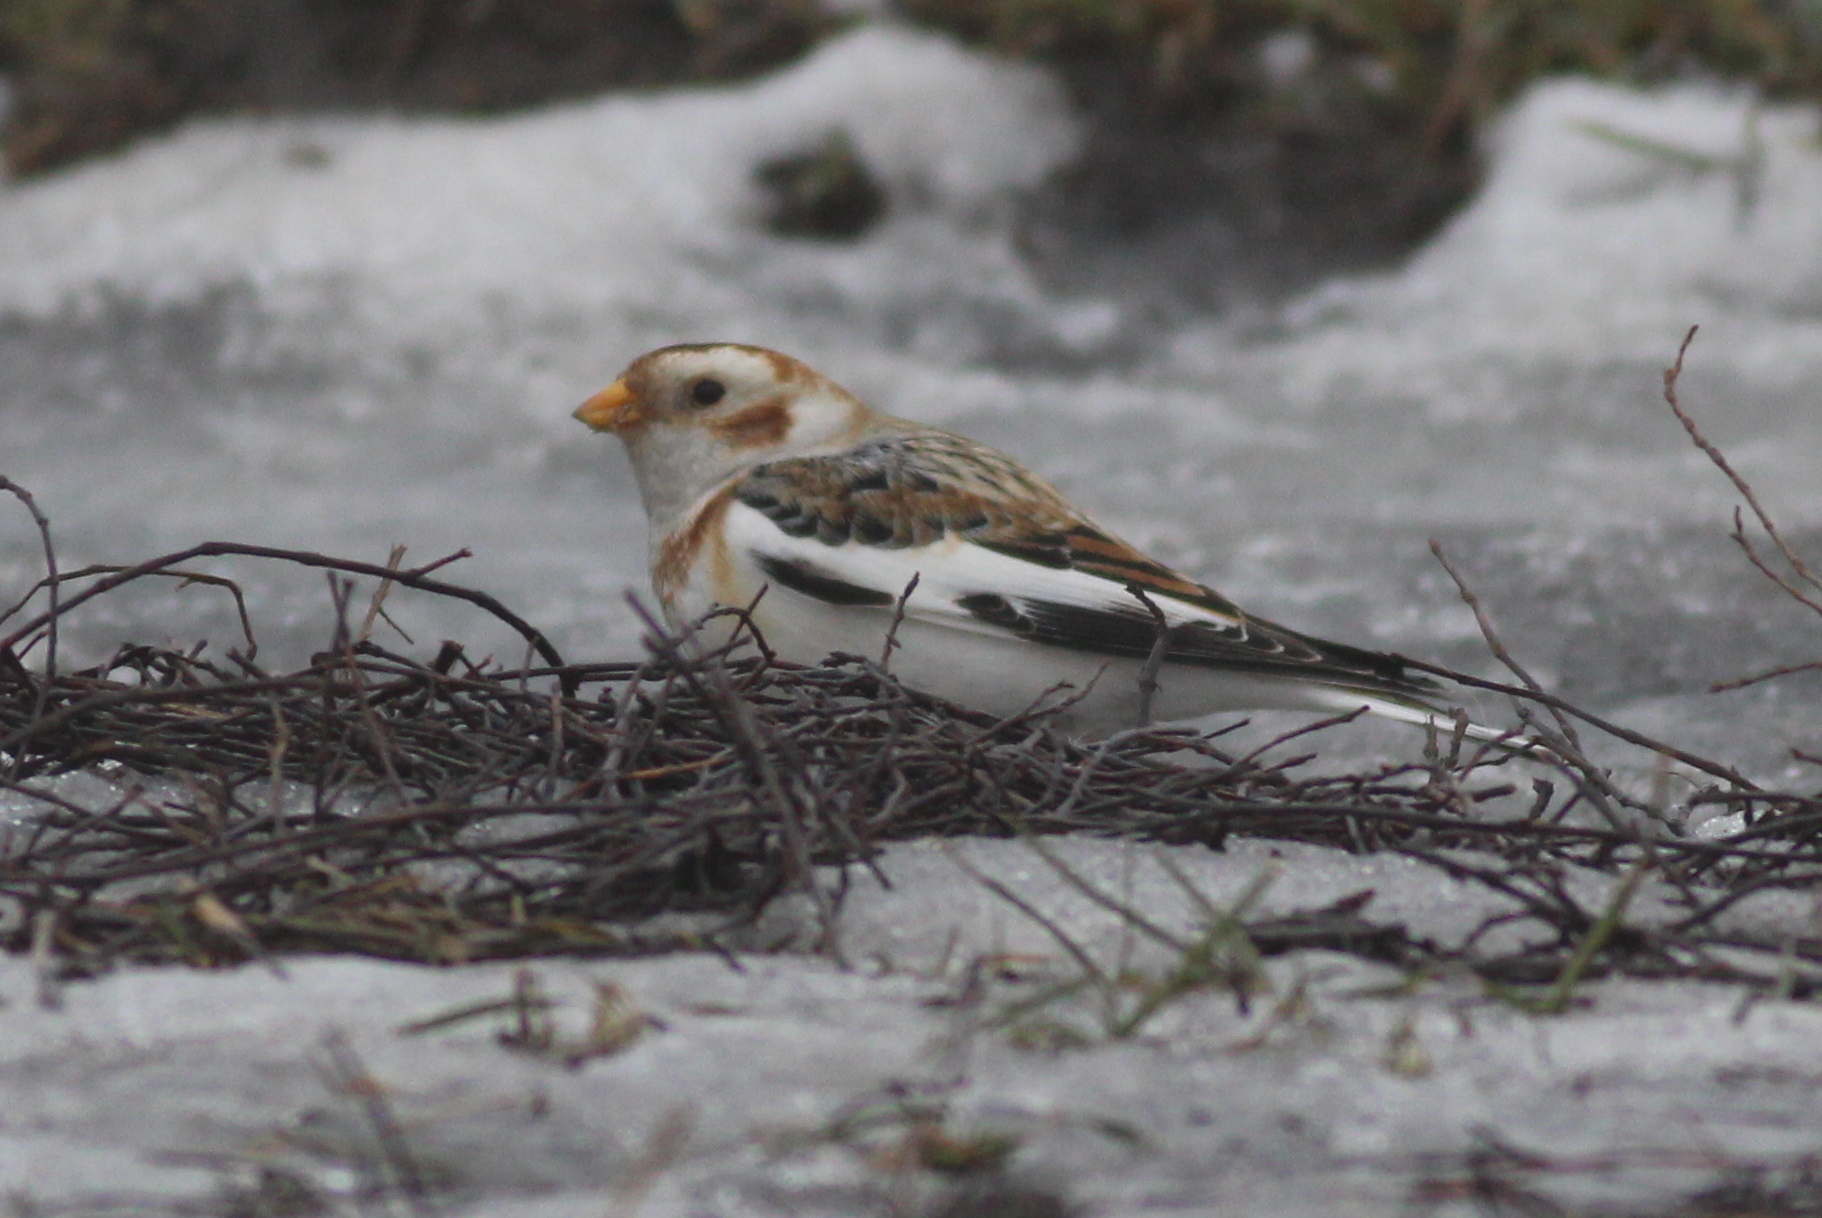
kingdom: Animalia
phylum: Chordata
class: Aves
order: Passeriformes
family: Calcariidae
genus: Plectrophenax
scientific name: Plectrophenax nivalis
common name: Snow bunting
